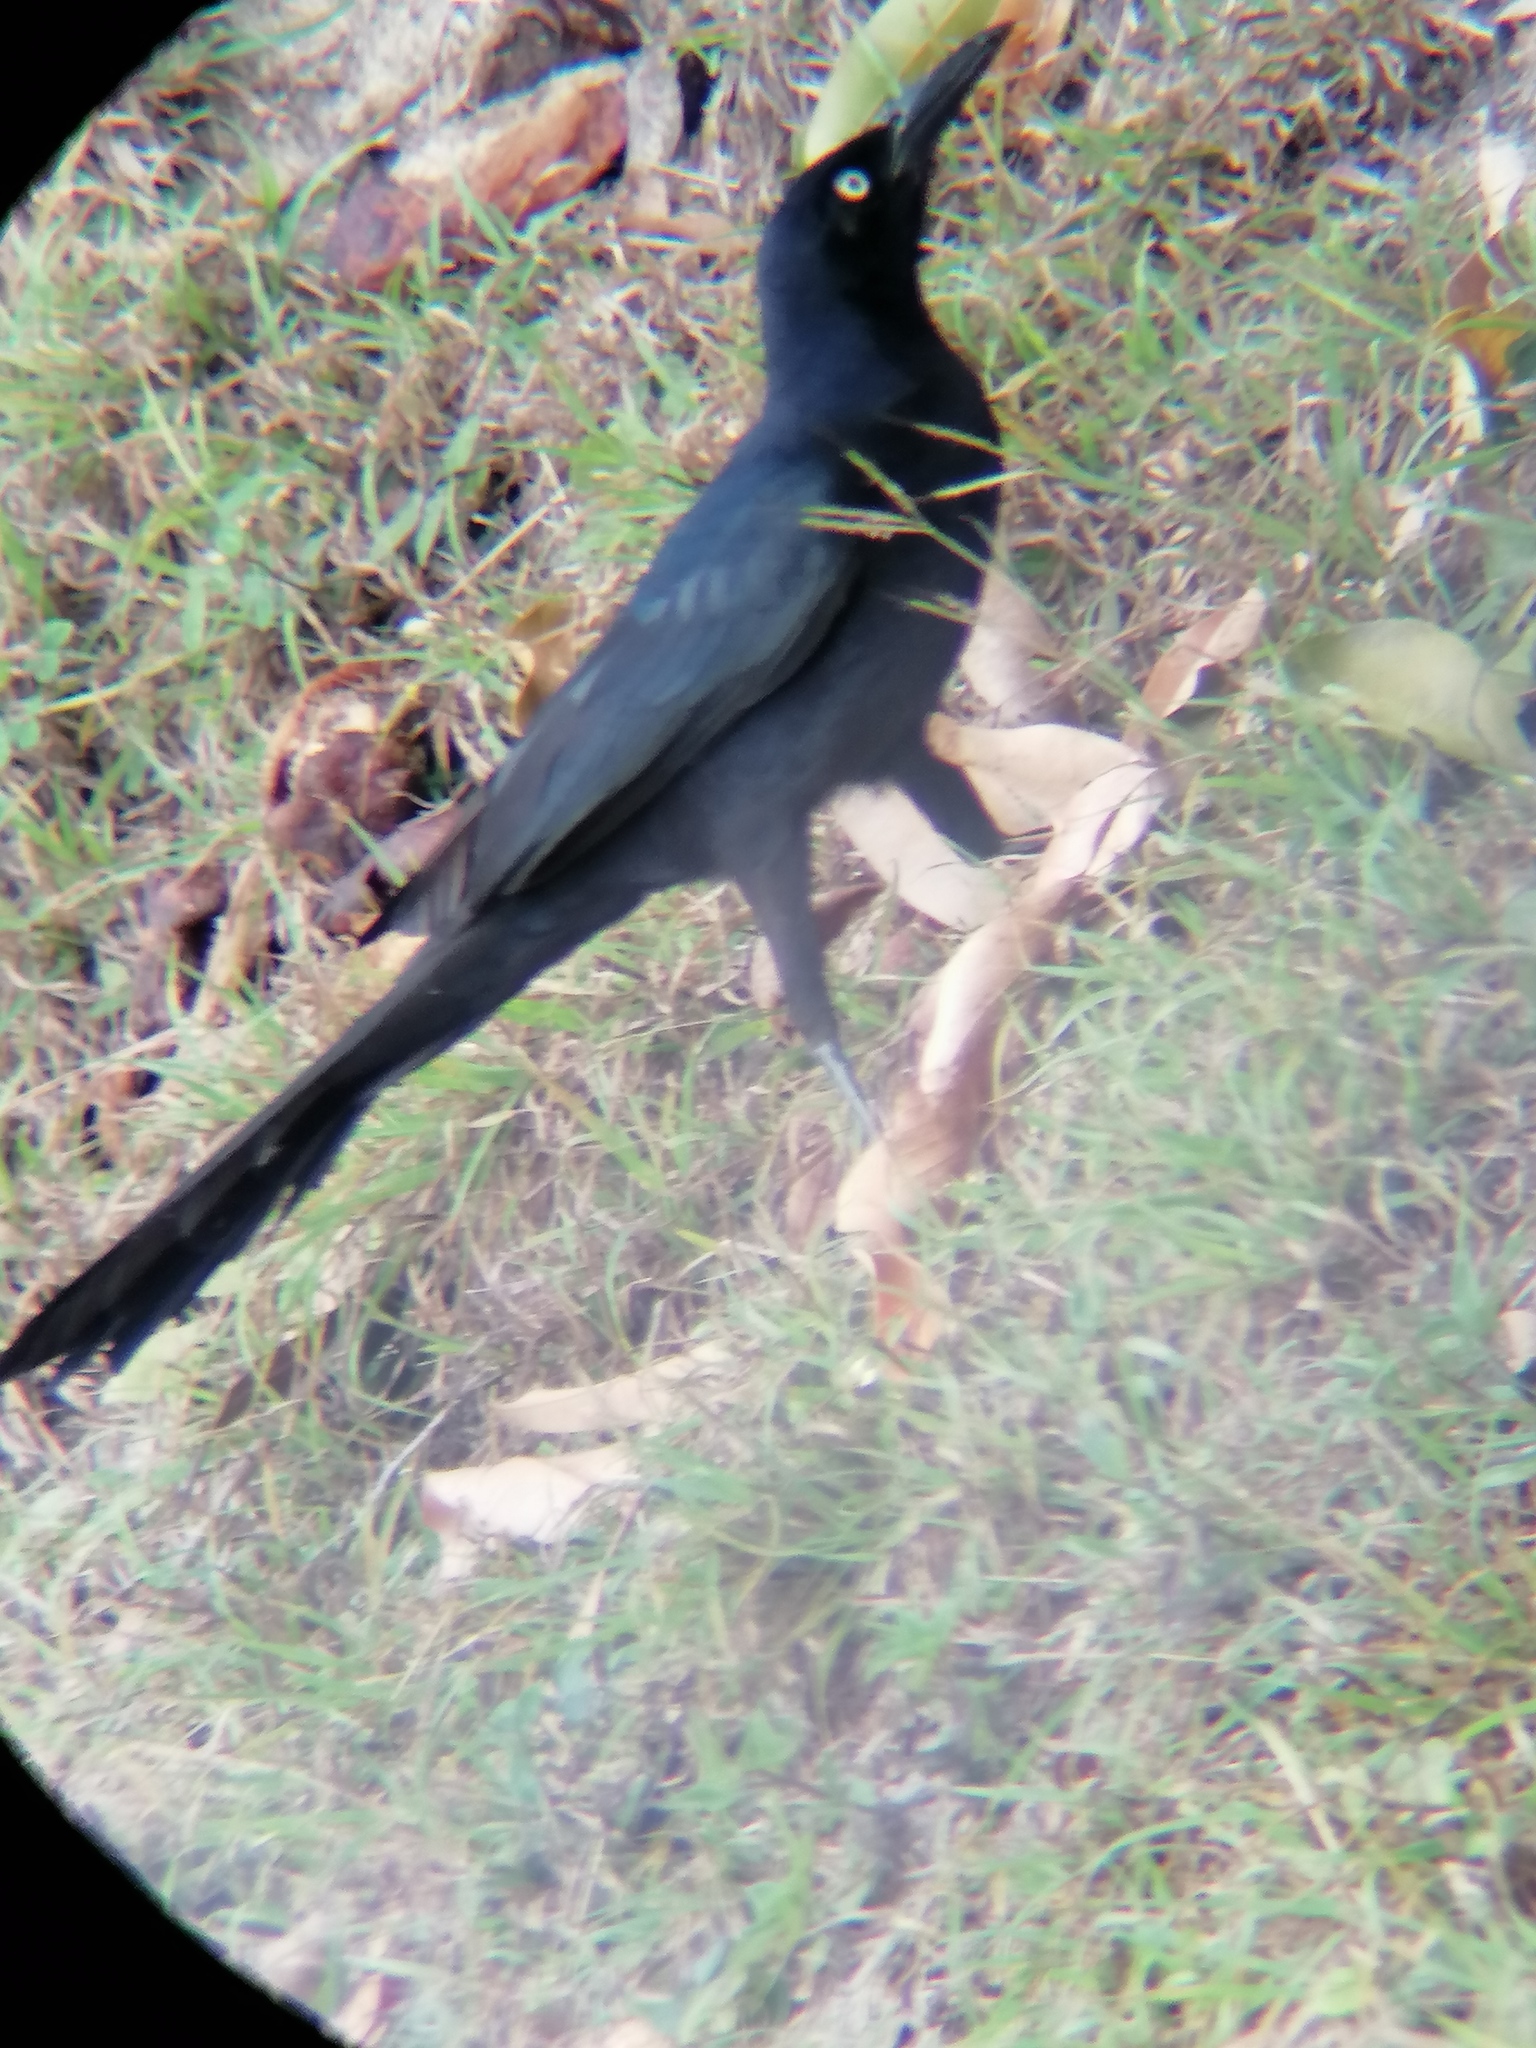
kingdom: Animalia
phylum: Chordata
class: Aves
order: Passeriformes
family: Icteridae
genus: Quiscalus
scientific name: Quiscalus mexicanus
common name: Great-tailed grackle
